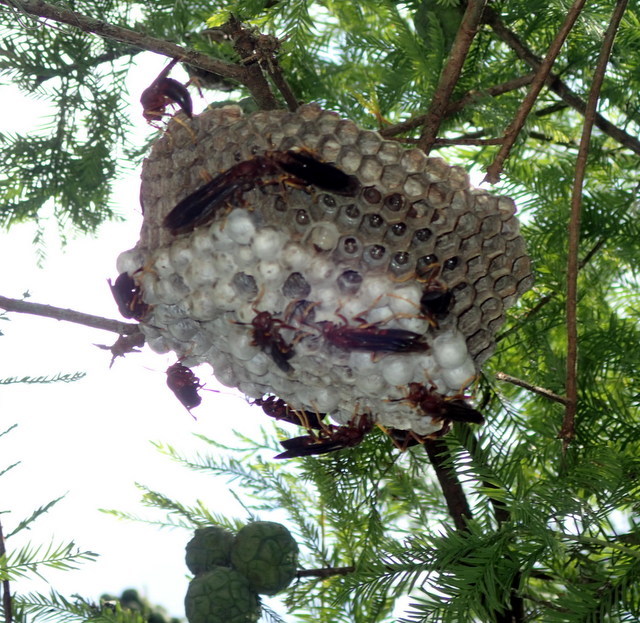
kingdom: Animalia
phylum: Arthropoda
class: Insecta
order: Hymenoptera
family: Eumenidae
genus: Polistes
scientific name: Polistes annularis
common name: Ringed paper wasp
